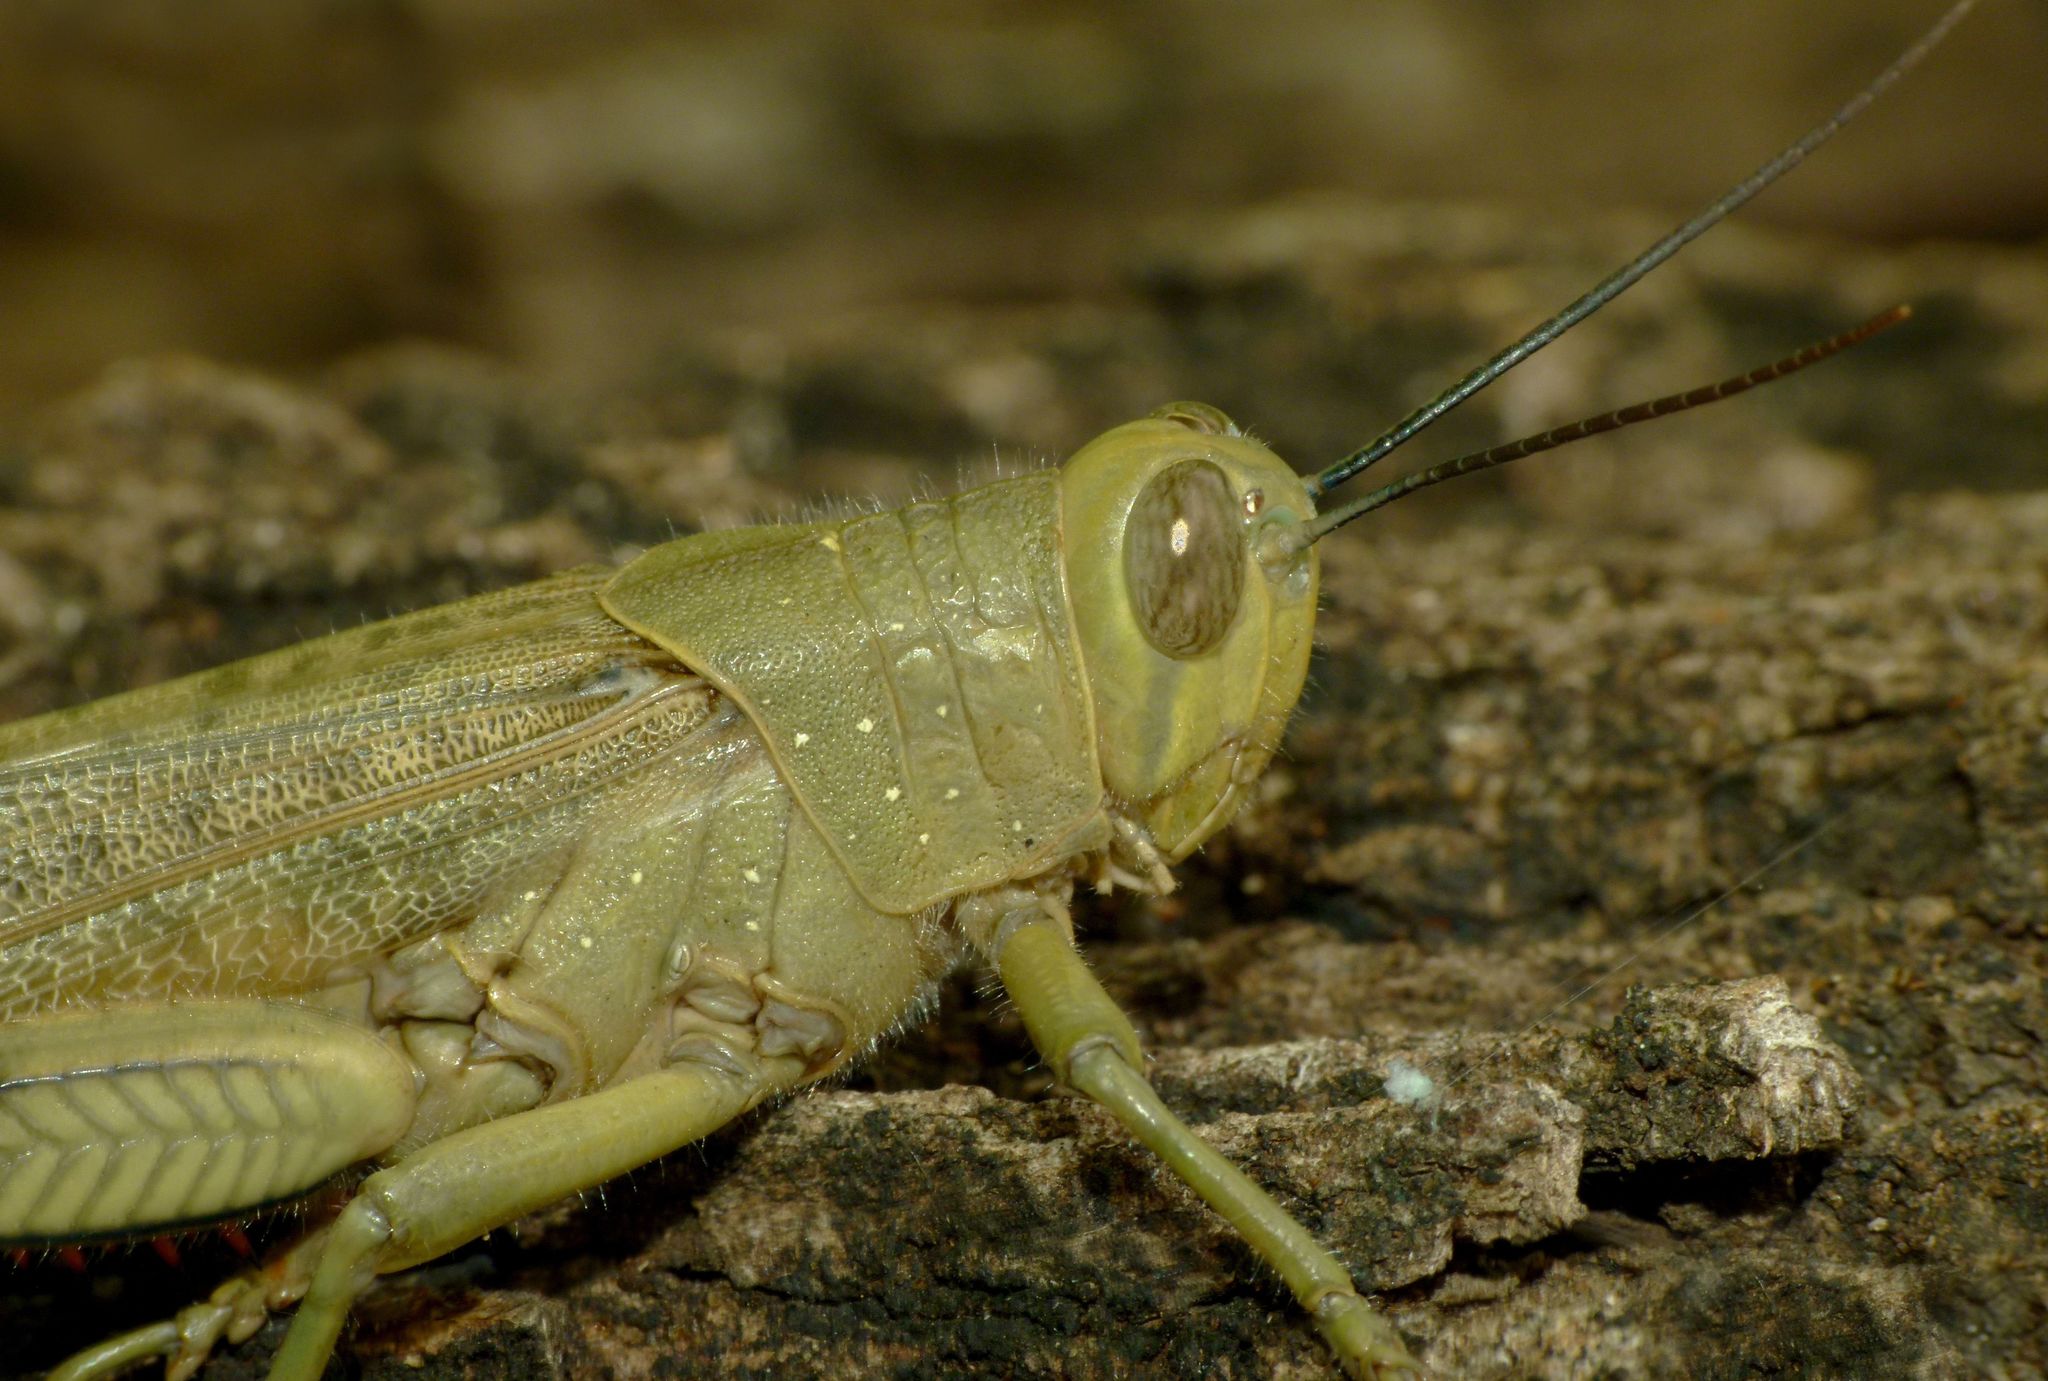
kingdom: Animalia
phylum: Arthropoda
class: Insecta
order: Orthoptera
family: Acrididae
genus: Valanga
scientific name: Valanga irregularis
